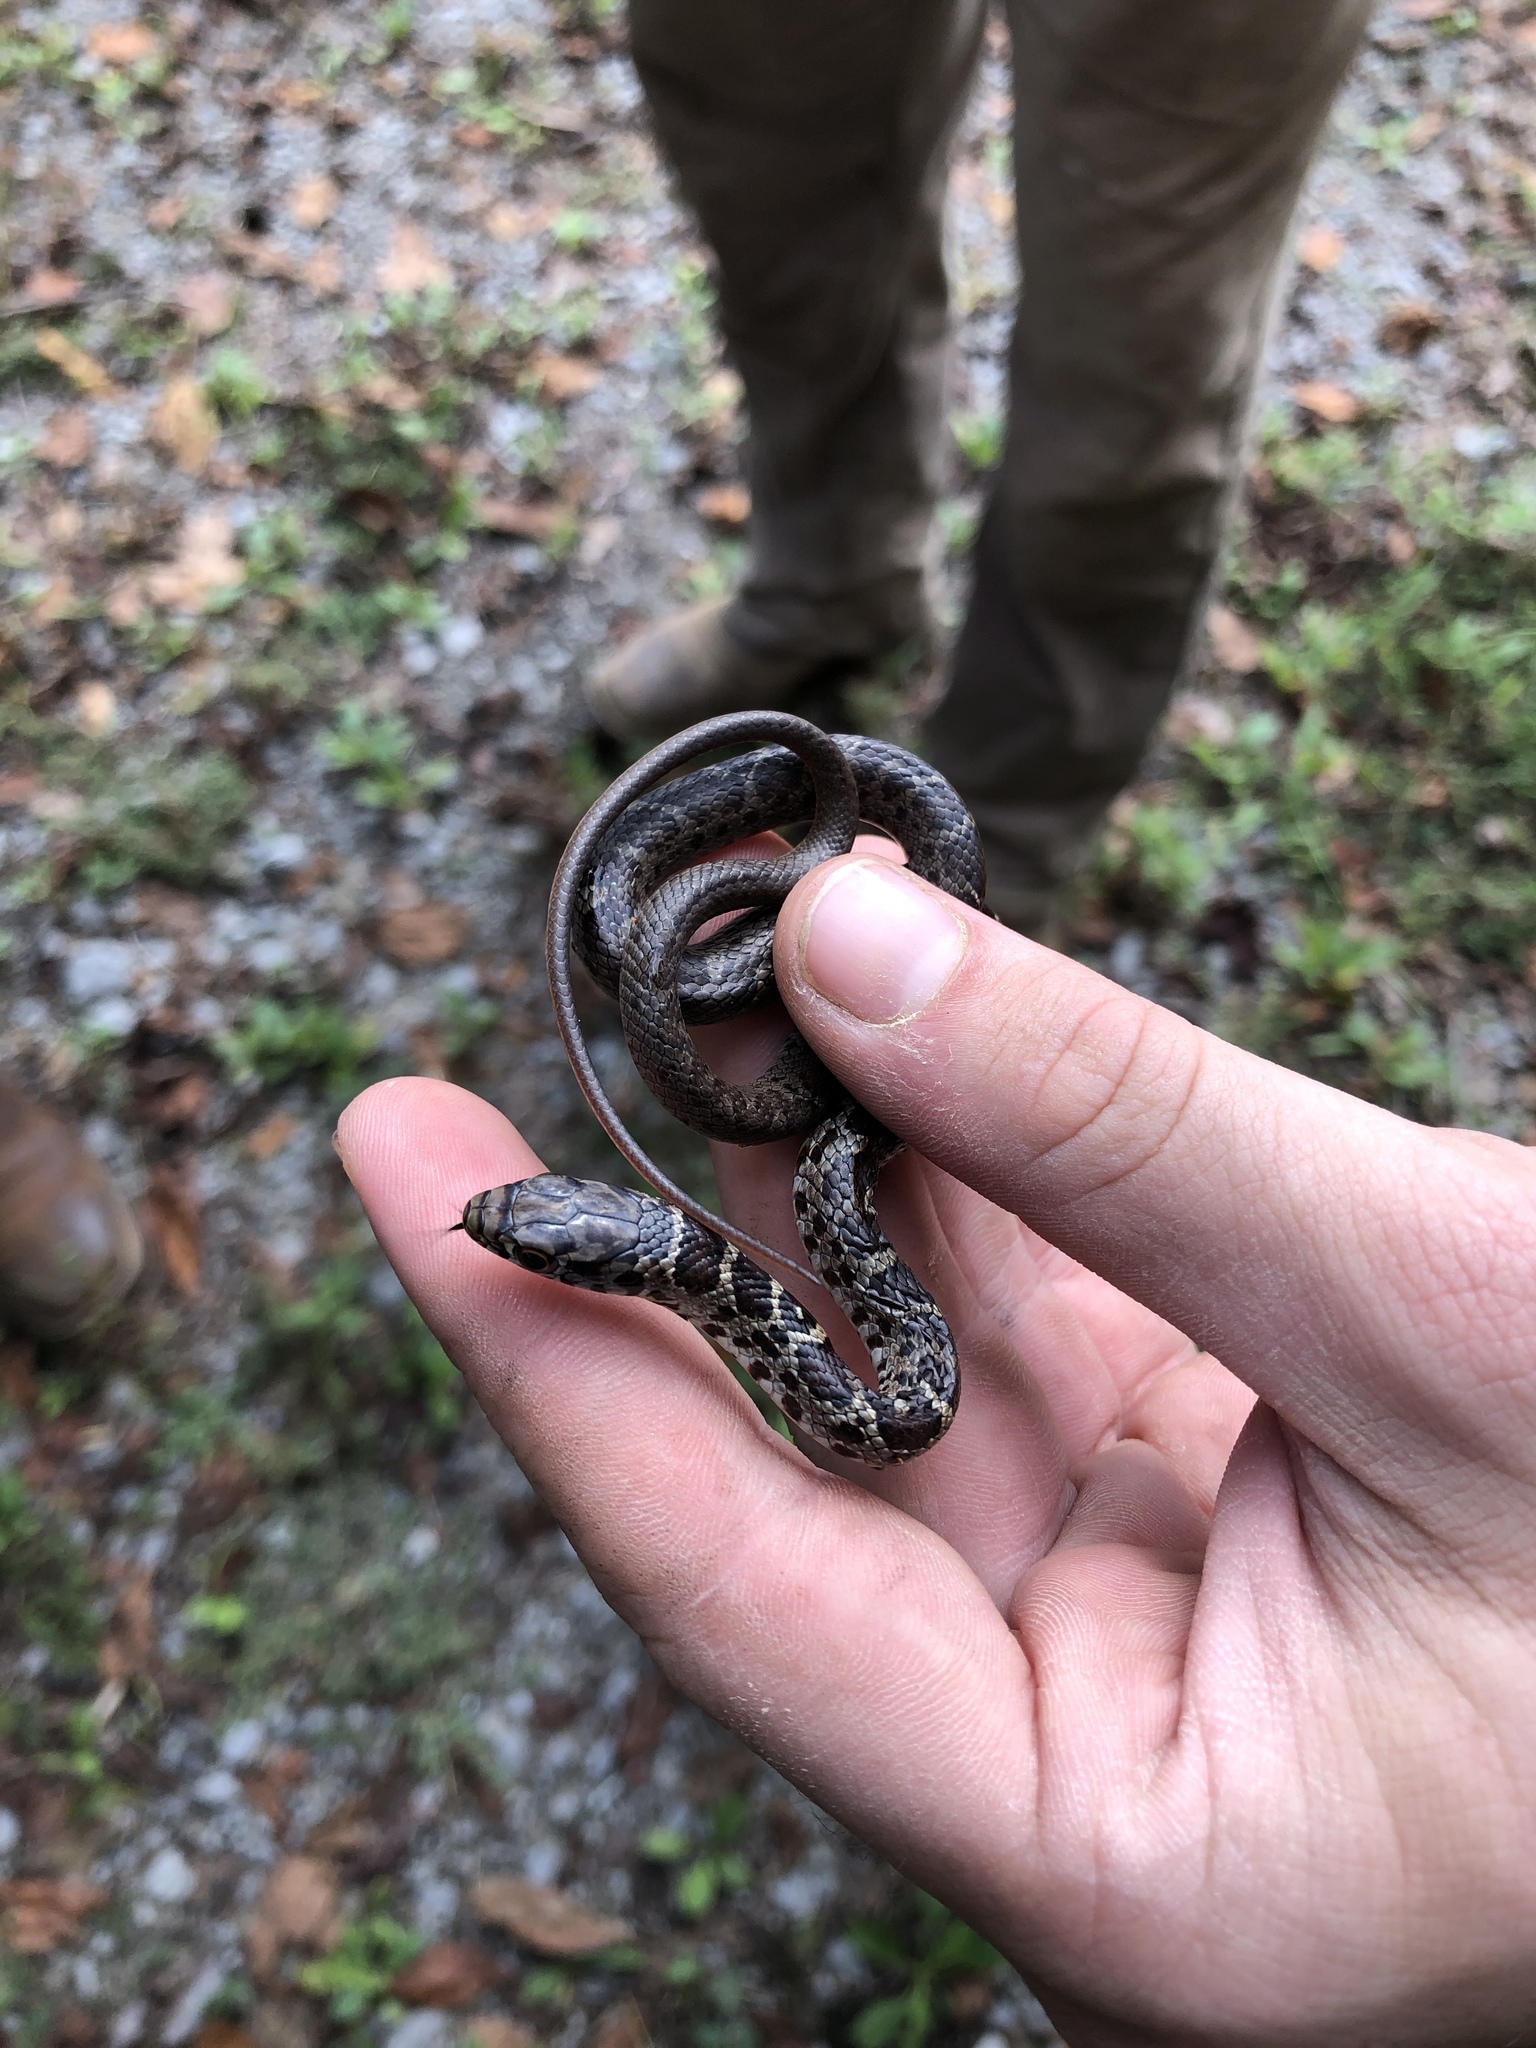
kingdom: Animalia
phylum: Chordata
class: Squamata
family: Colubridae
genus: Coluber
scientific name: Coluber constrictor
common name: Eastern racer
